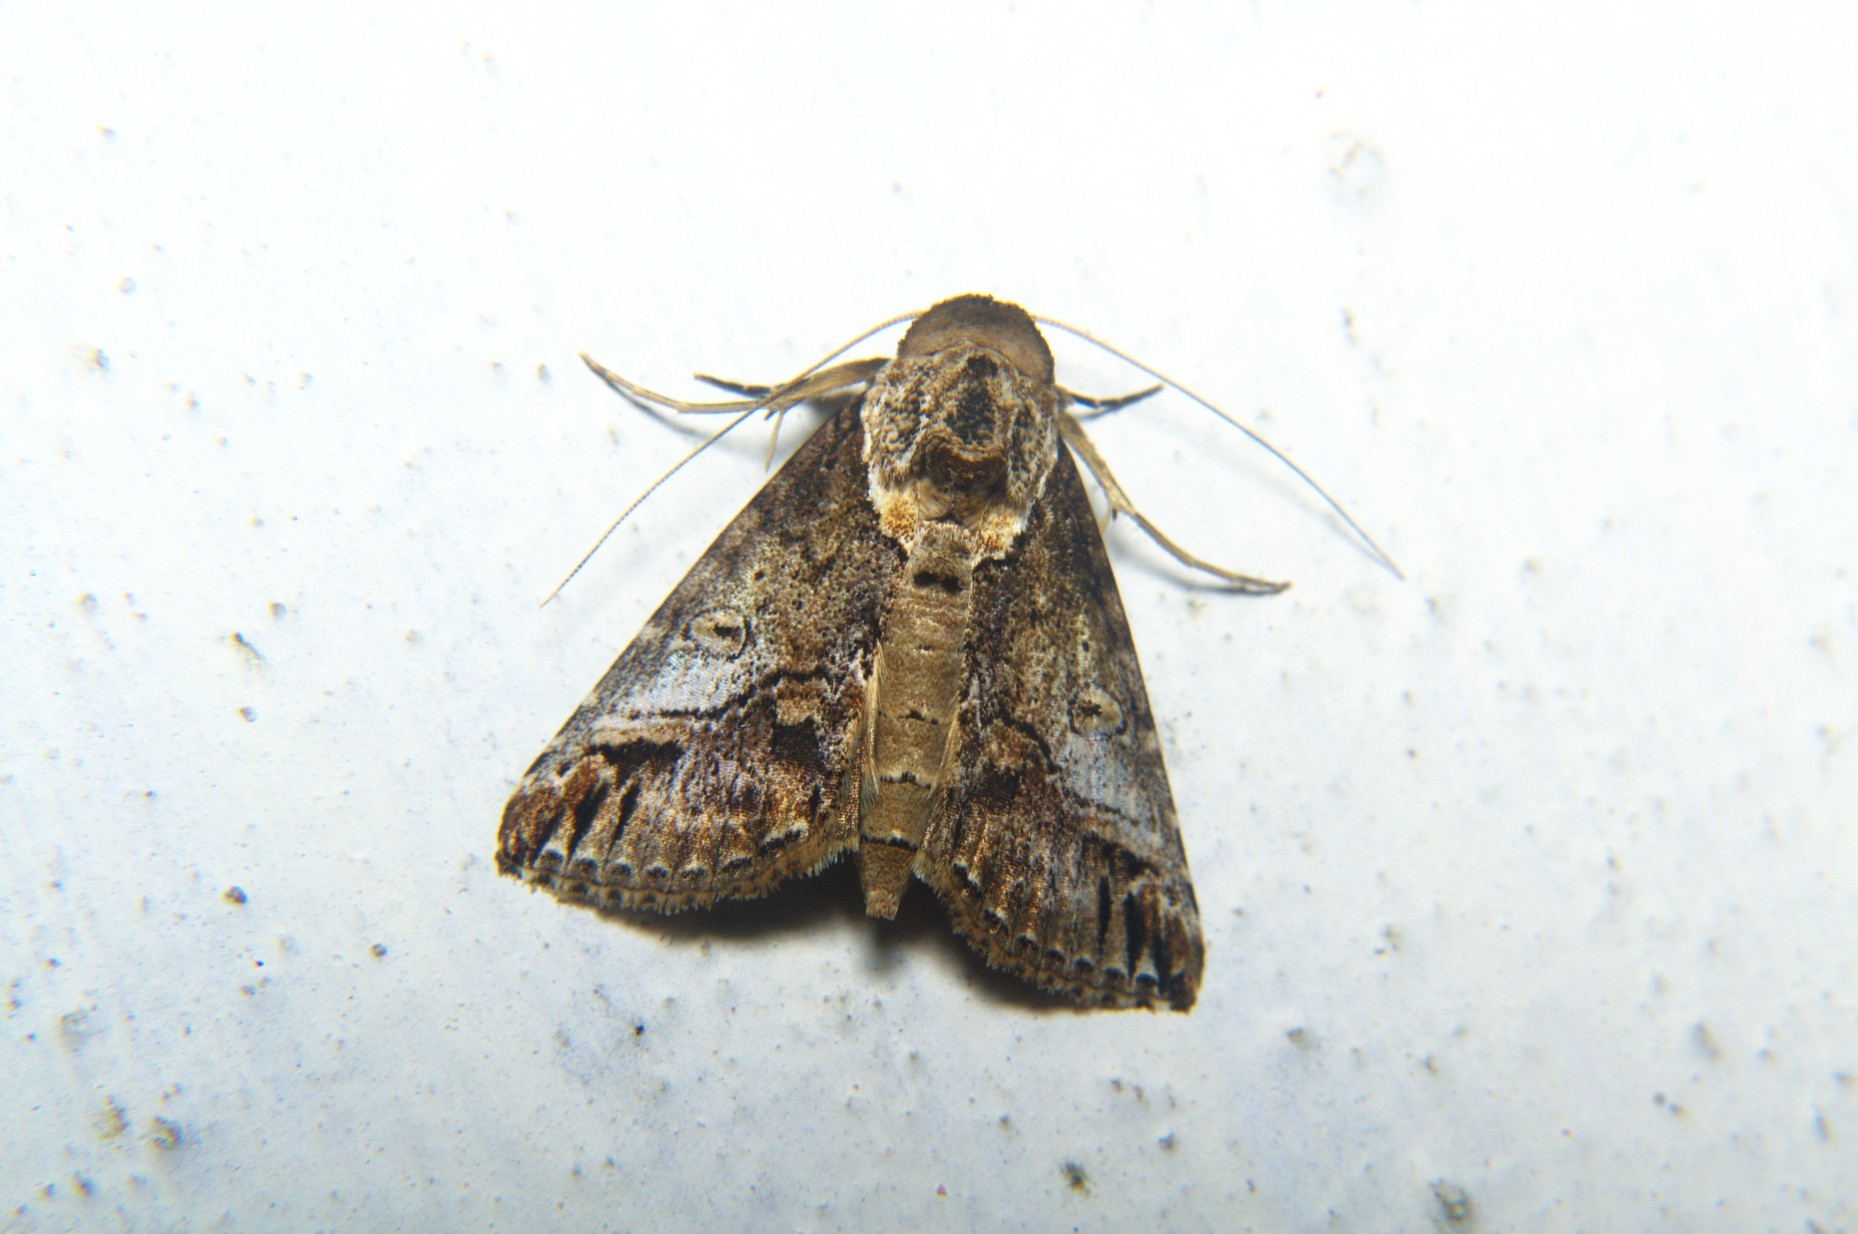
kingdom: Animalia
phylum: Arthropoda
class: Insecta
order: Lepidoptera
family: Nolidae
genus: Risoba
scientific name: Risoba obstructa
